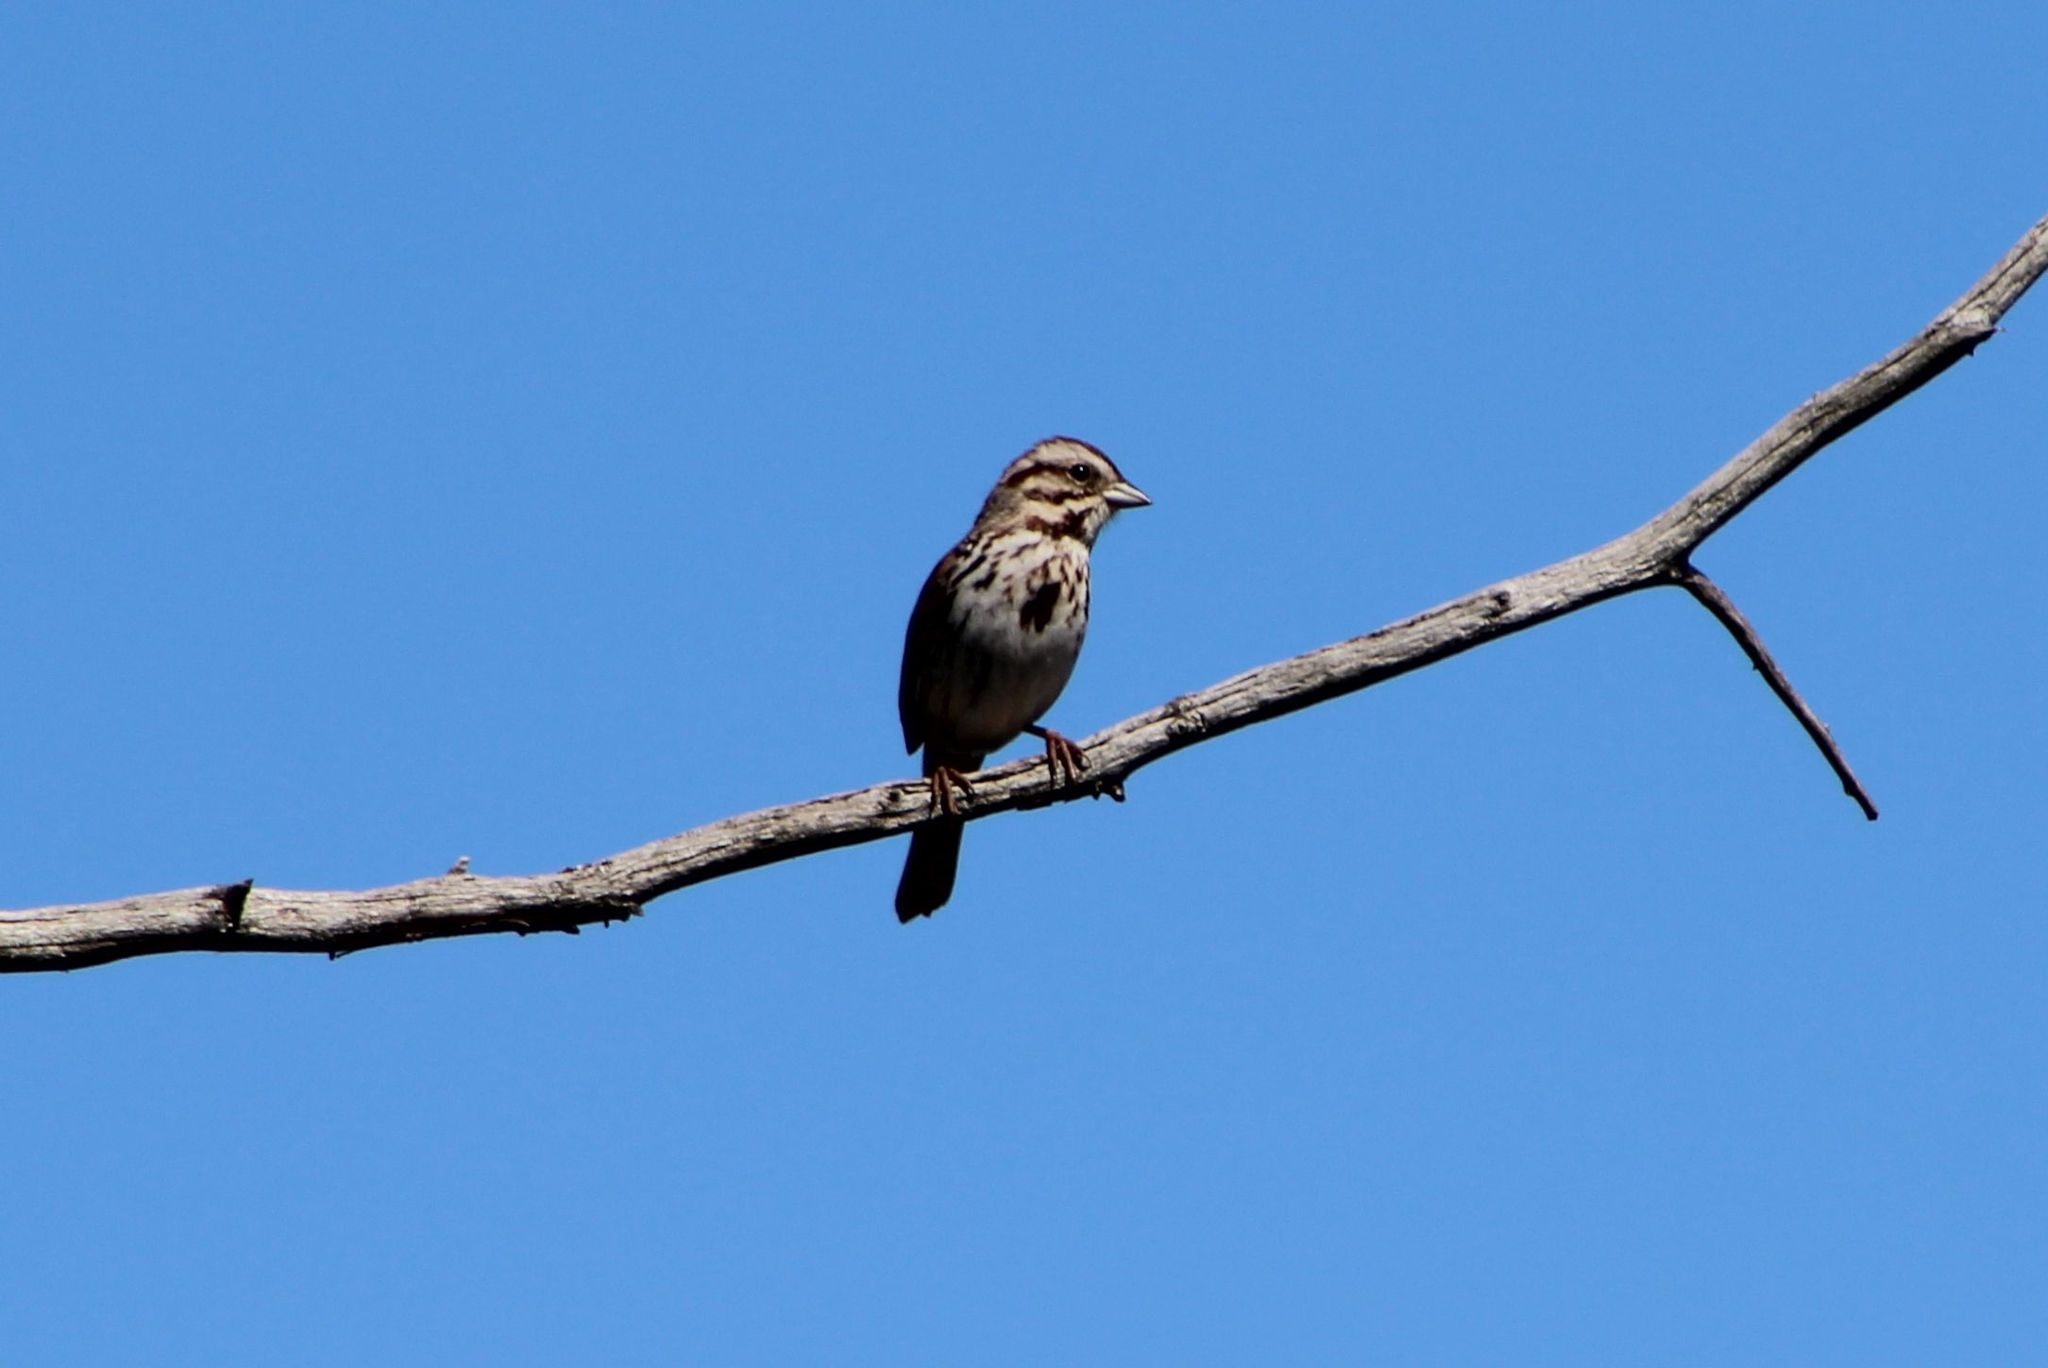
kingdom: Animalia
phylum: Chordata
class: Aves
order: Passeriformes
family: Passerellidae
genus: Melospiza
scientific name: Melospiza melodia
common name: Song sparrow
